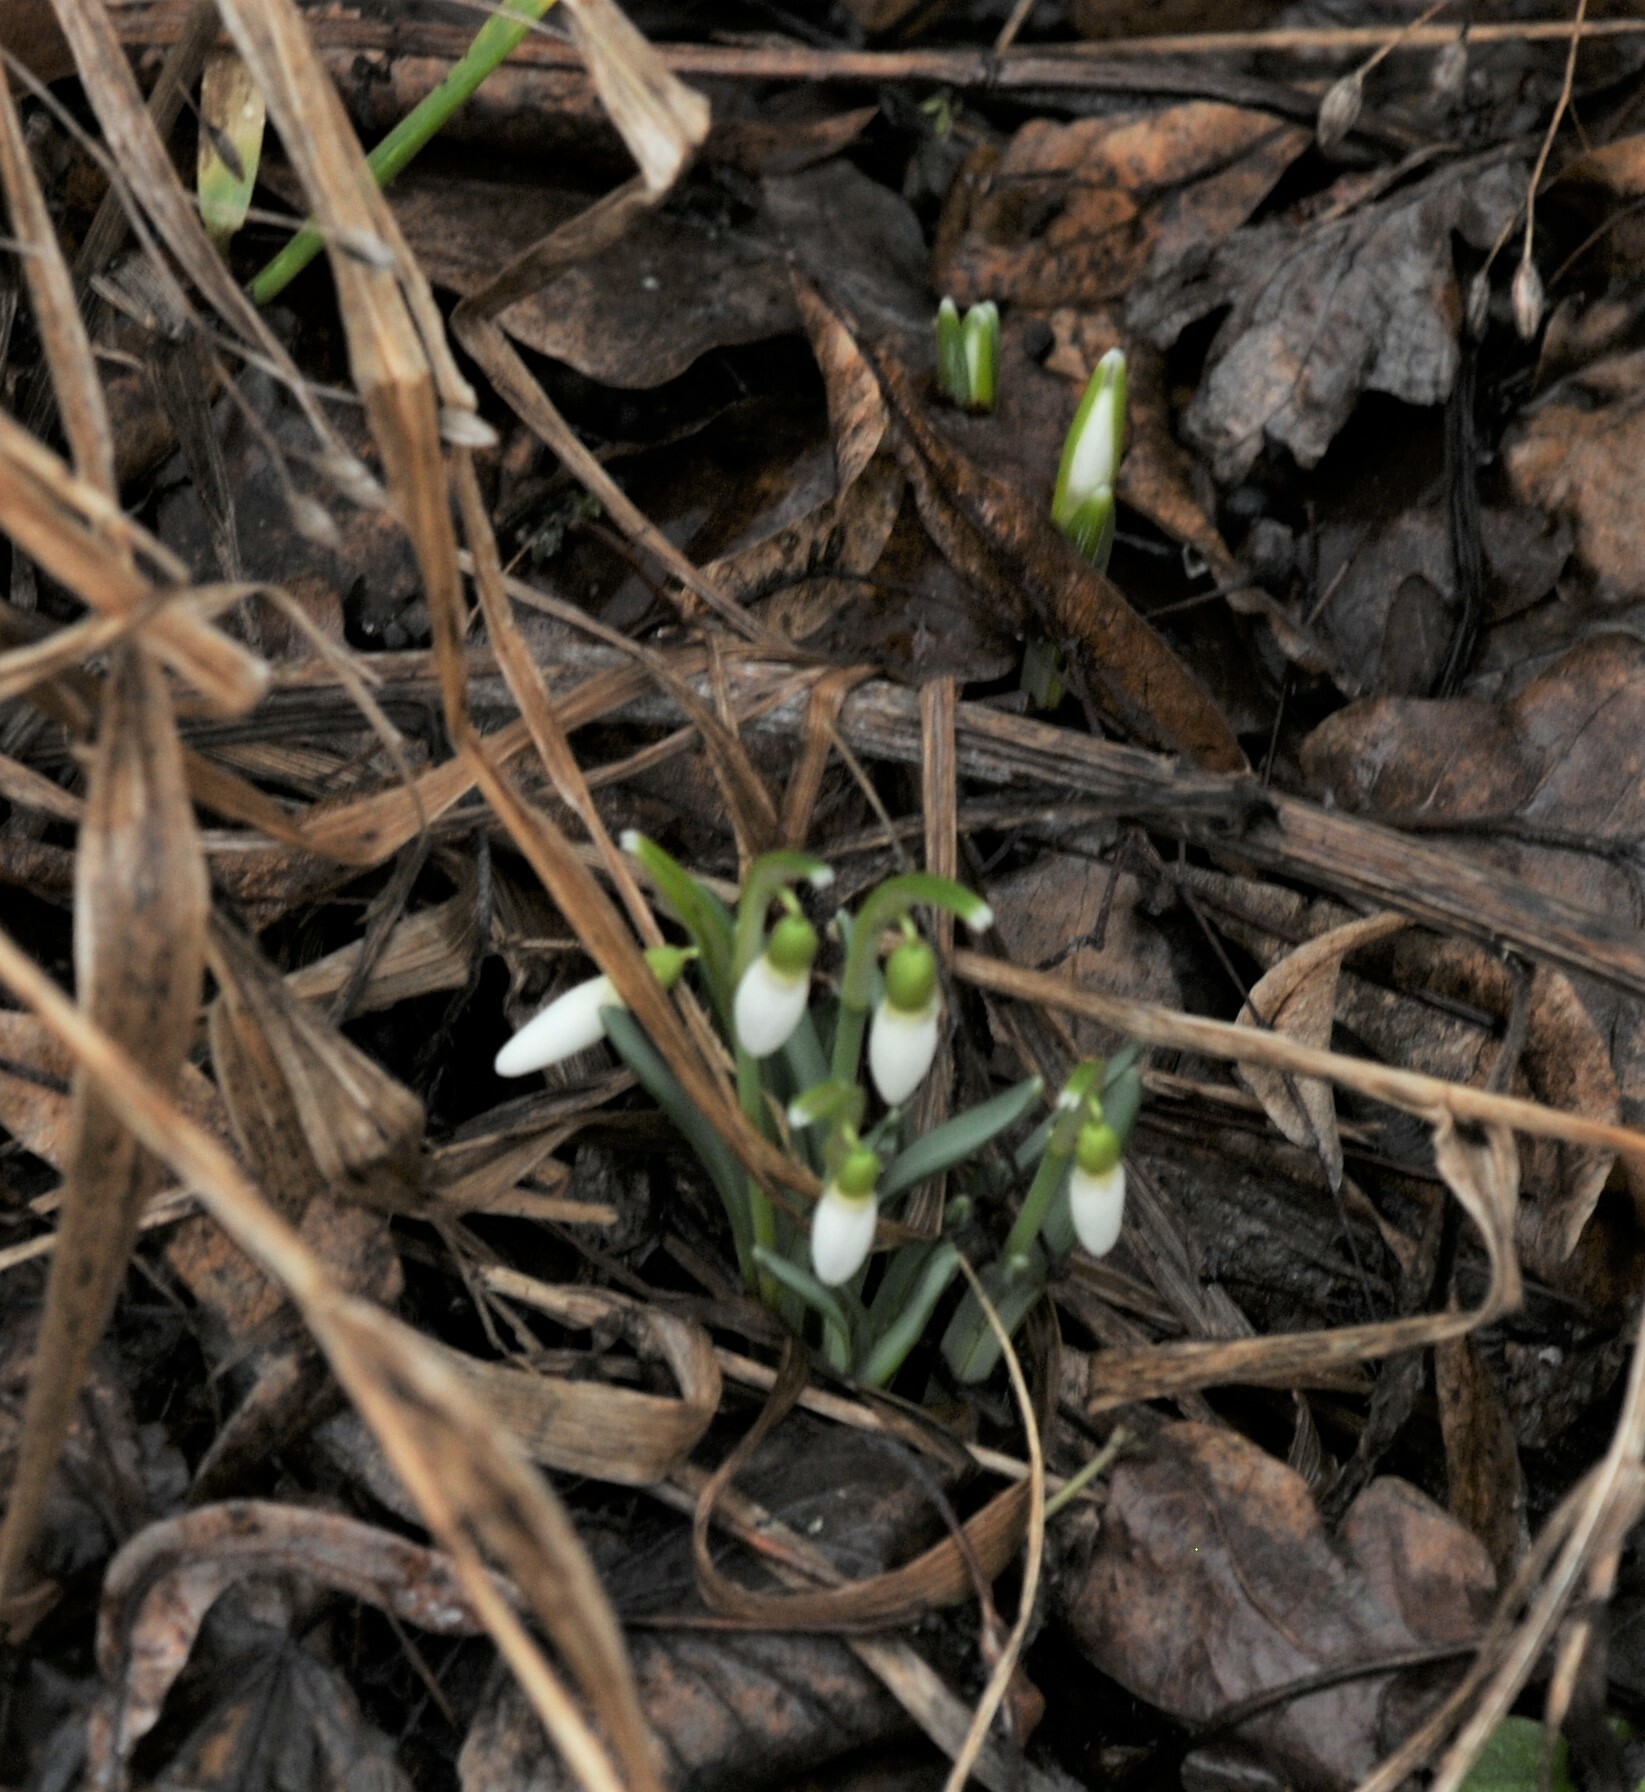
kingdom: Plantae
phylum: Tracheophyta
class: Liliopsida
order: Asparagales
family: Amaryllidaceae
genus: Galanthus
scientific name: Galanthus nivalis
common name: Snowdrop
